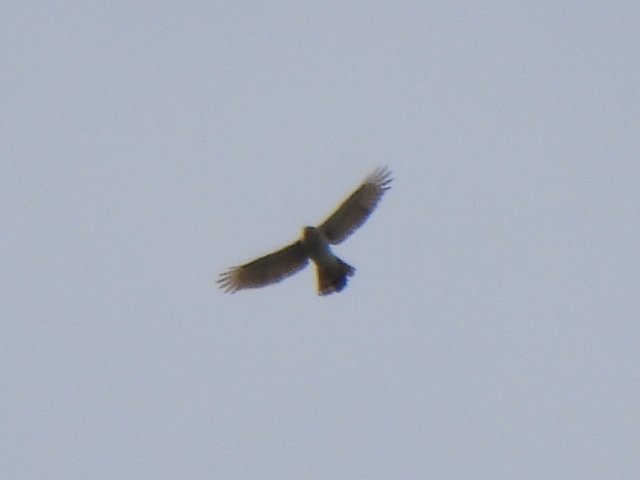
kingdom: Animalia
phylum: Chordata
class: Aves
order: Accipitriformes
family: Accipitridae
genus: Accipiter
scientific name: Accipiter cooperii
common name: Cooper's hawk
